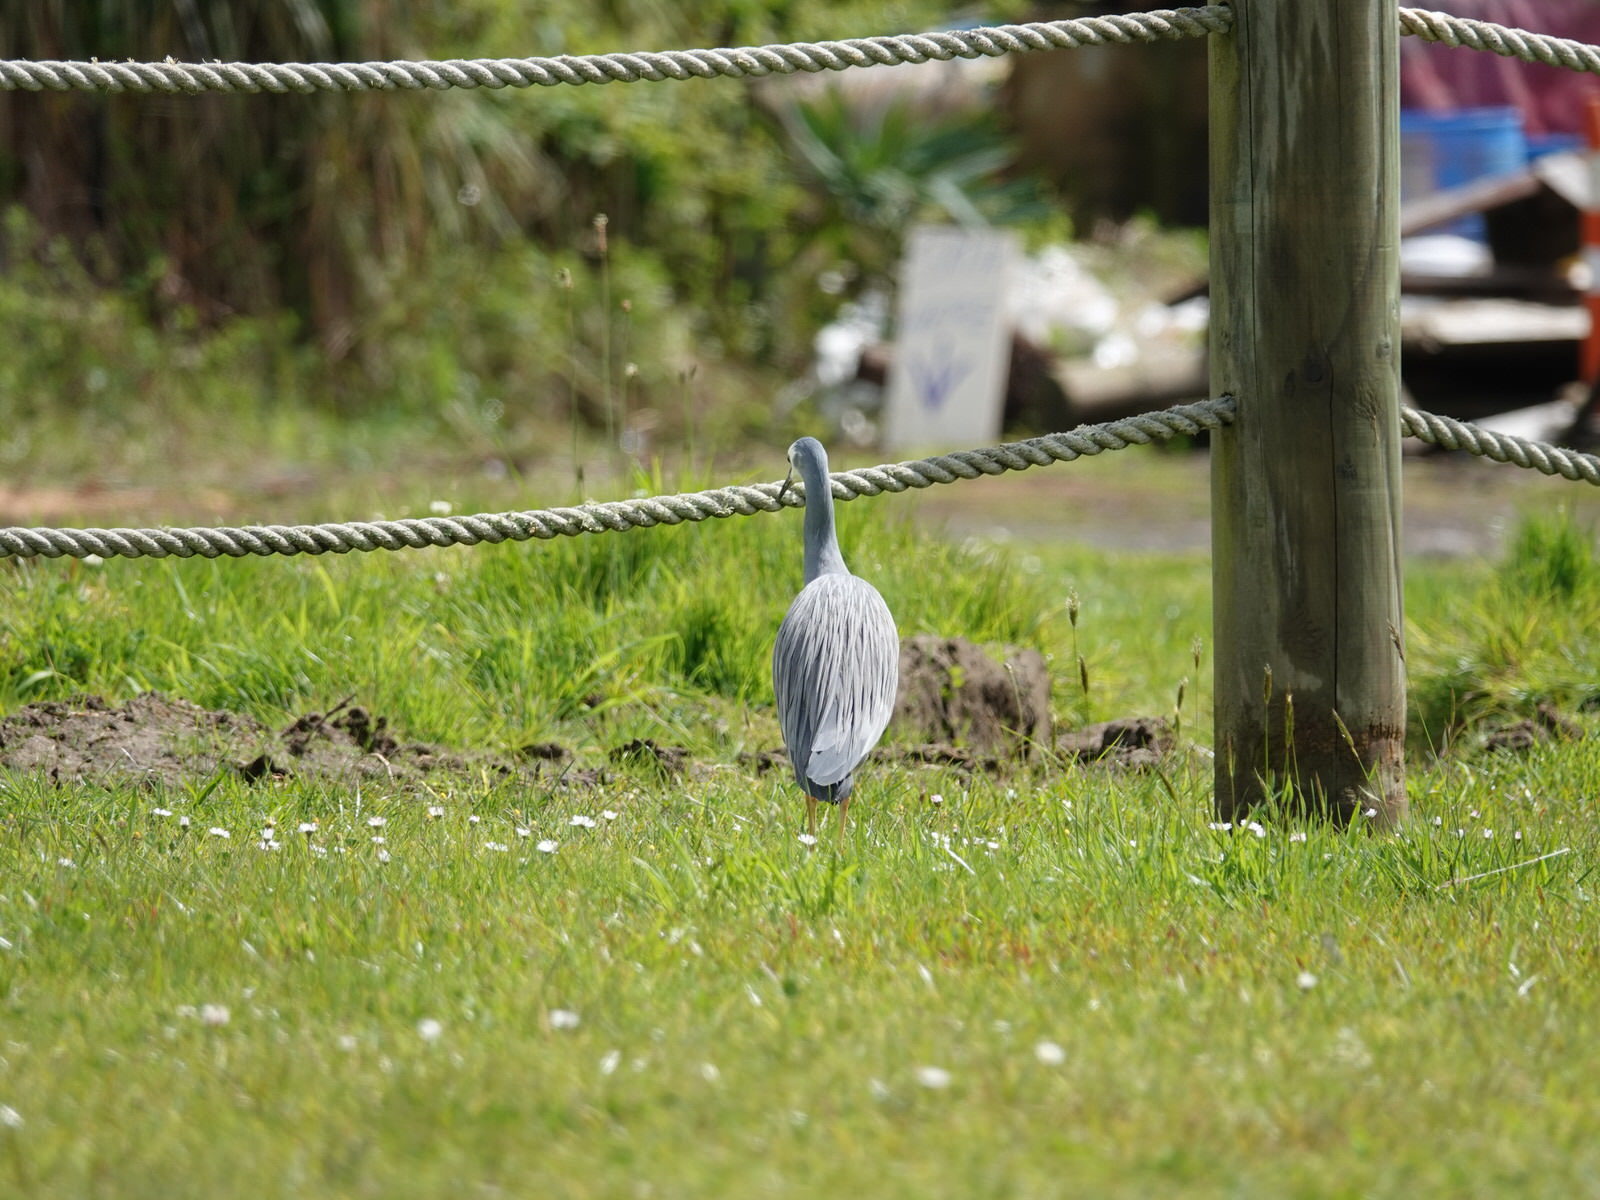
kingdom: Animalia
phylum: Chordata
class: Aves
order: Pelecaniformes
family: Ardeidae
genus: Egretta
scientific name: Egretta novaehollandiae
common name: White-faced heron
